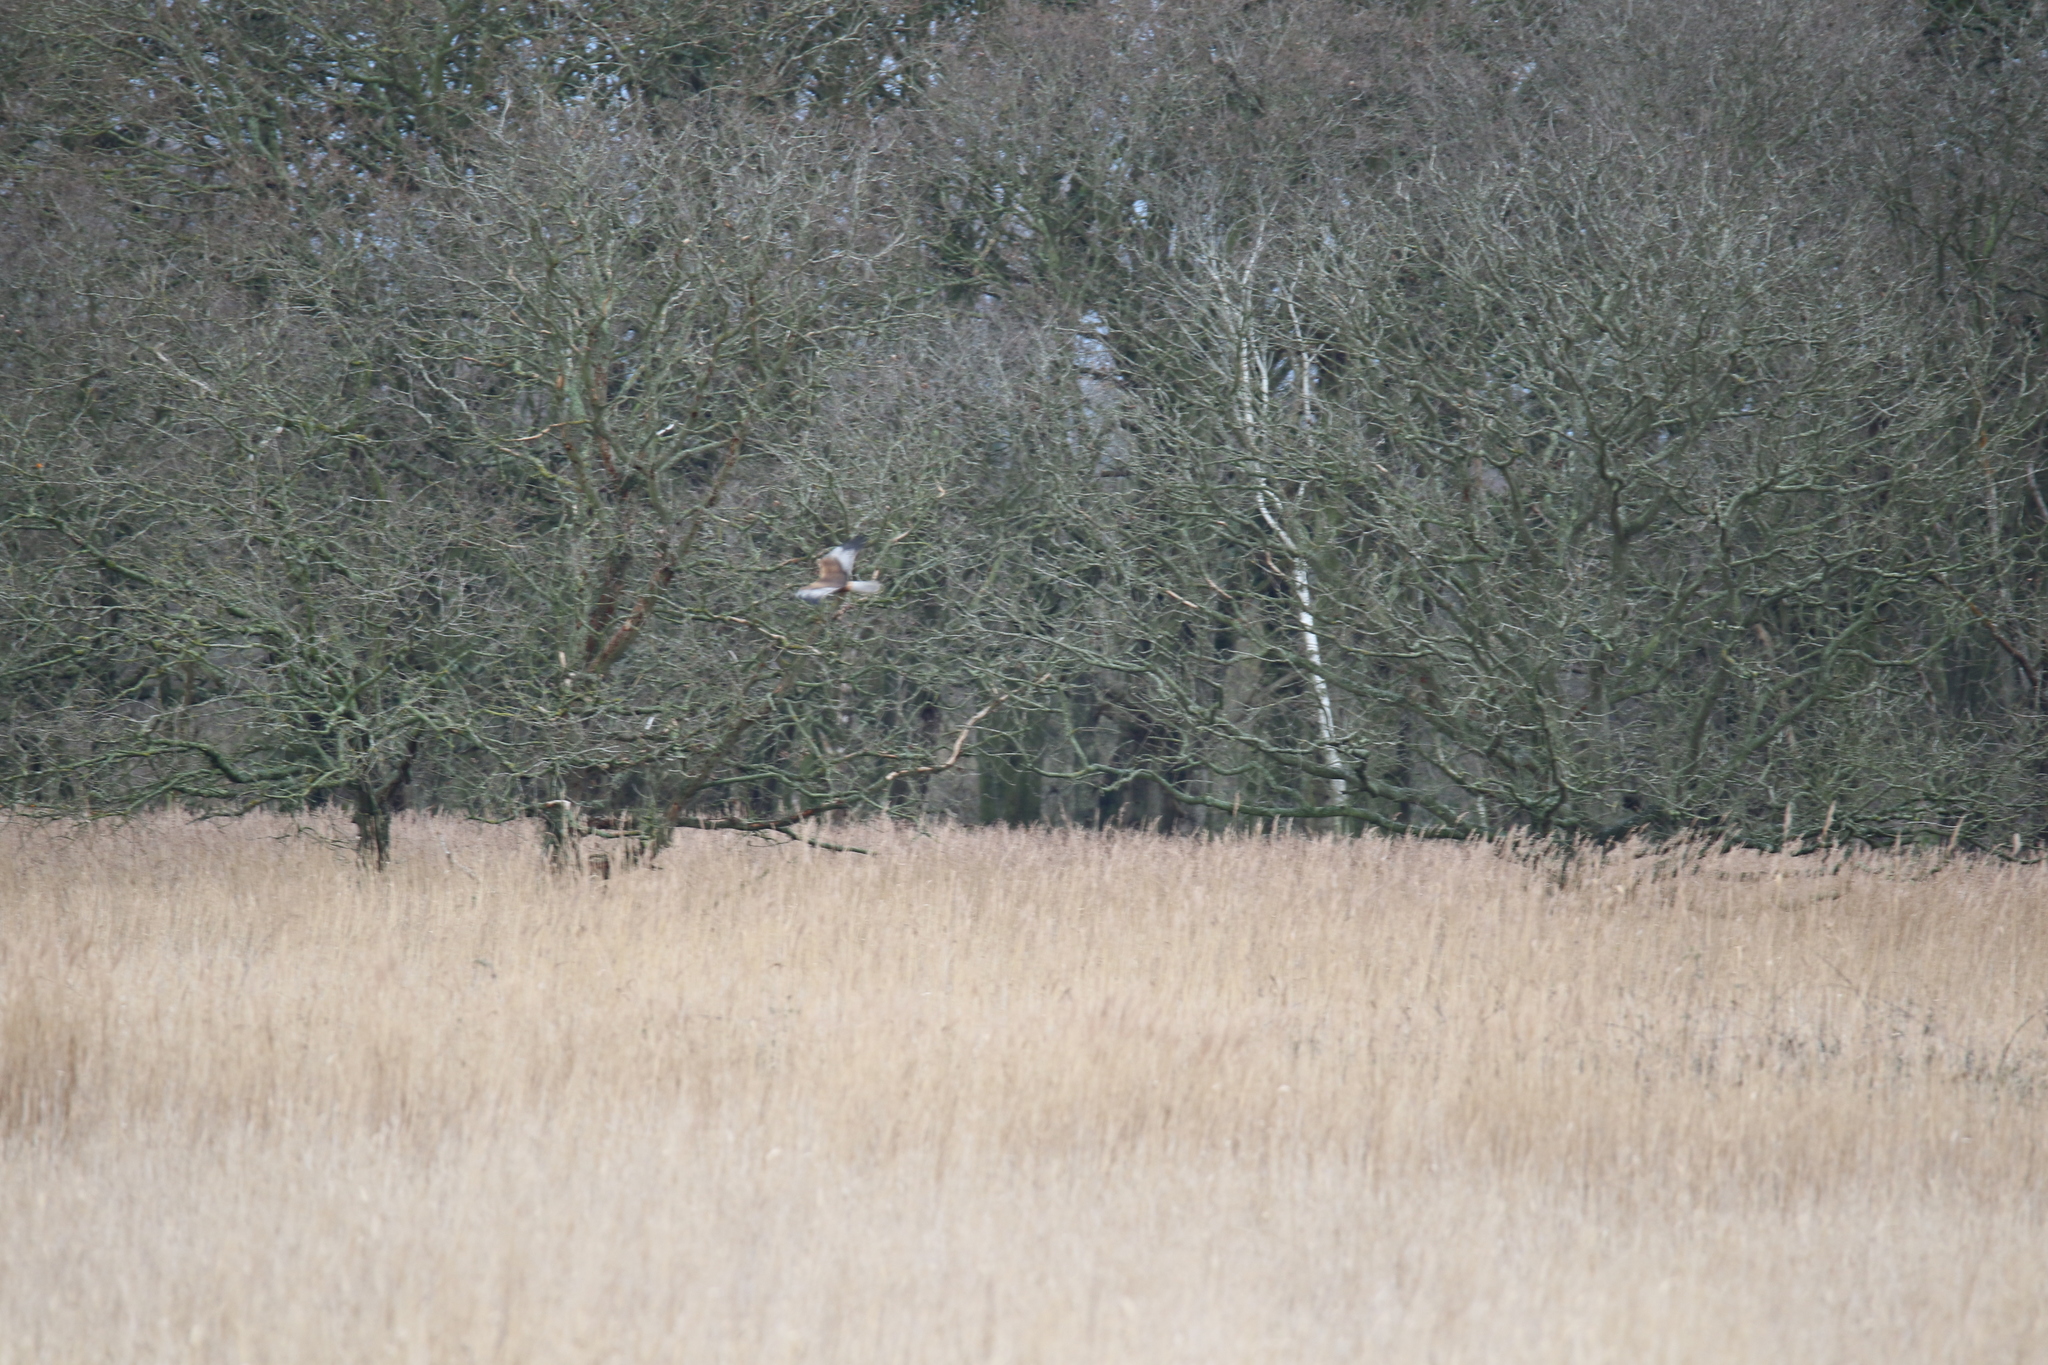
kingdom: Animalia
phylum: Chordata
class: Aves
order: Accipitriformes
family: Accipitridae
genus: Circus
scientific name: Circus aeruginosus
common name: Western marsh harrier
